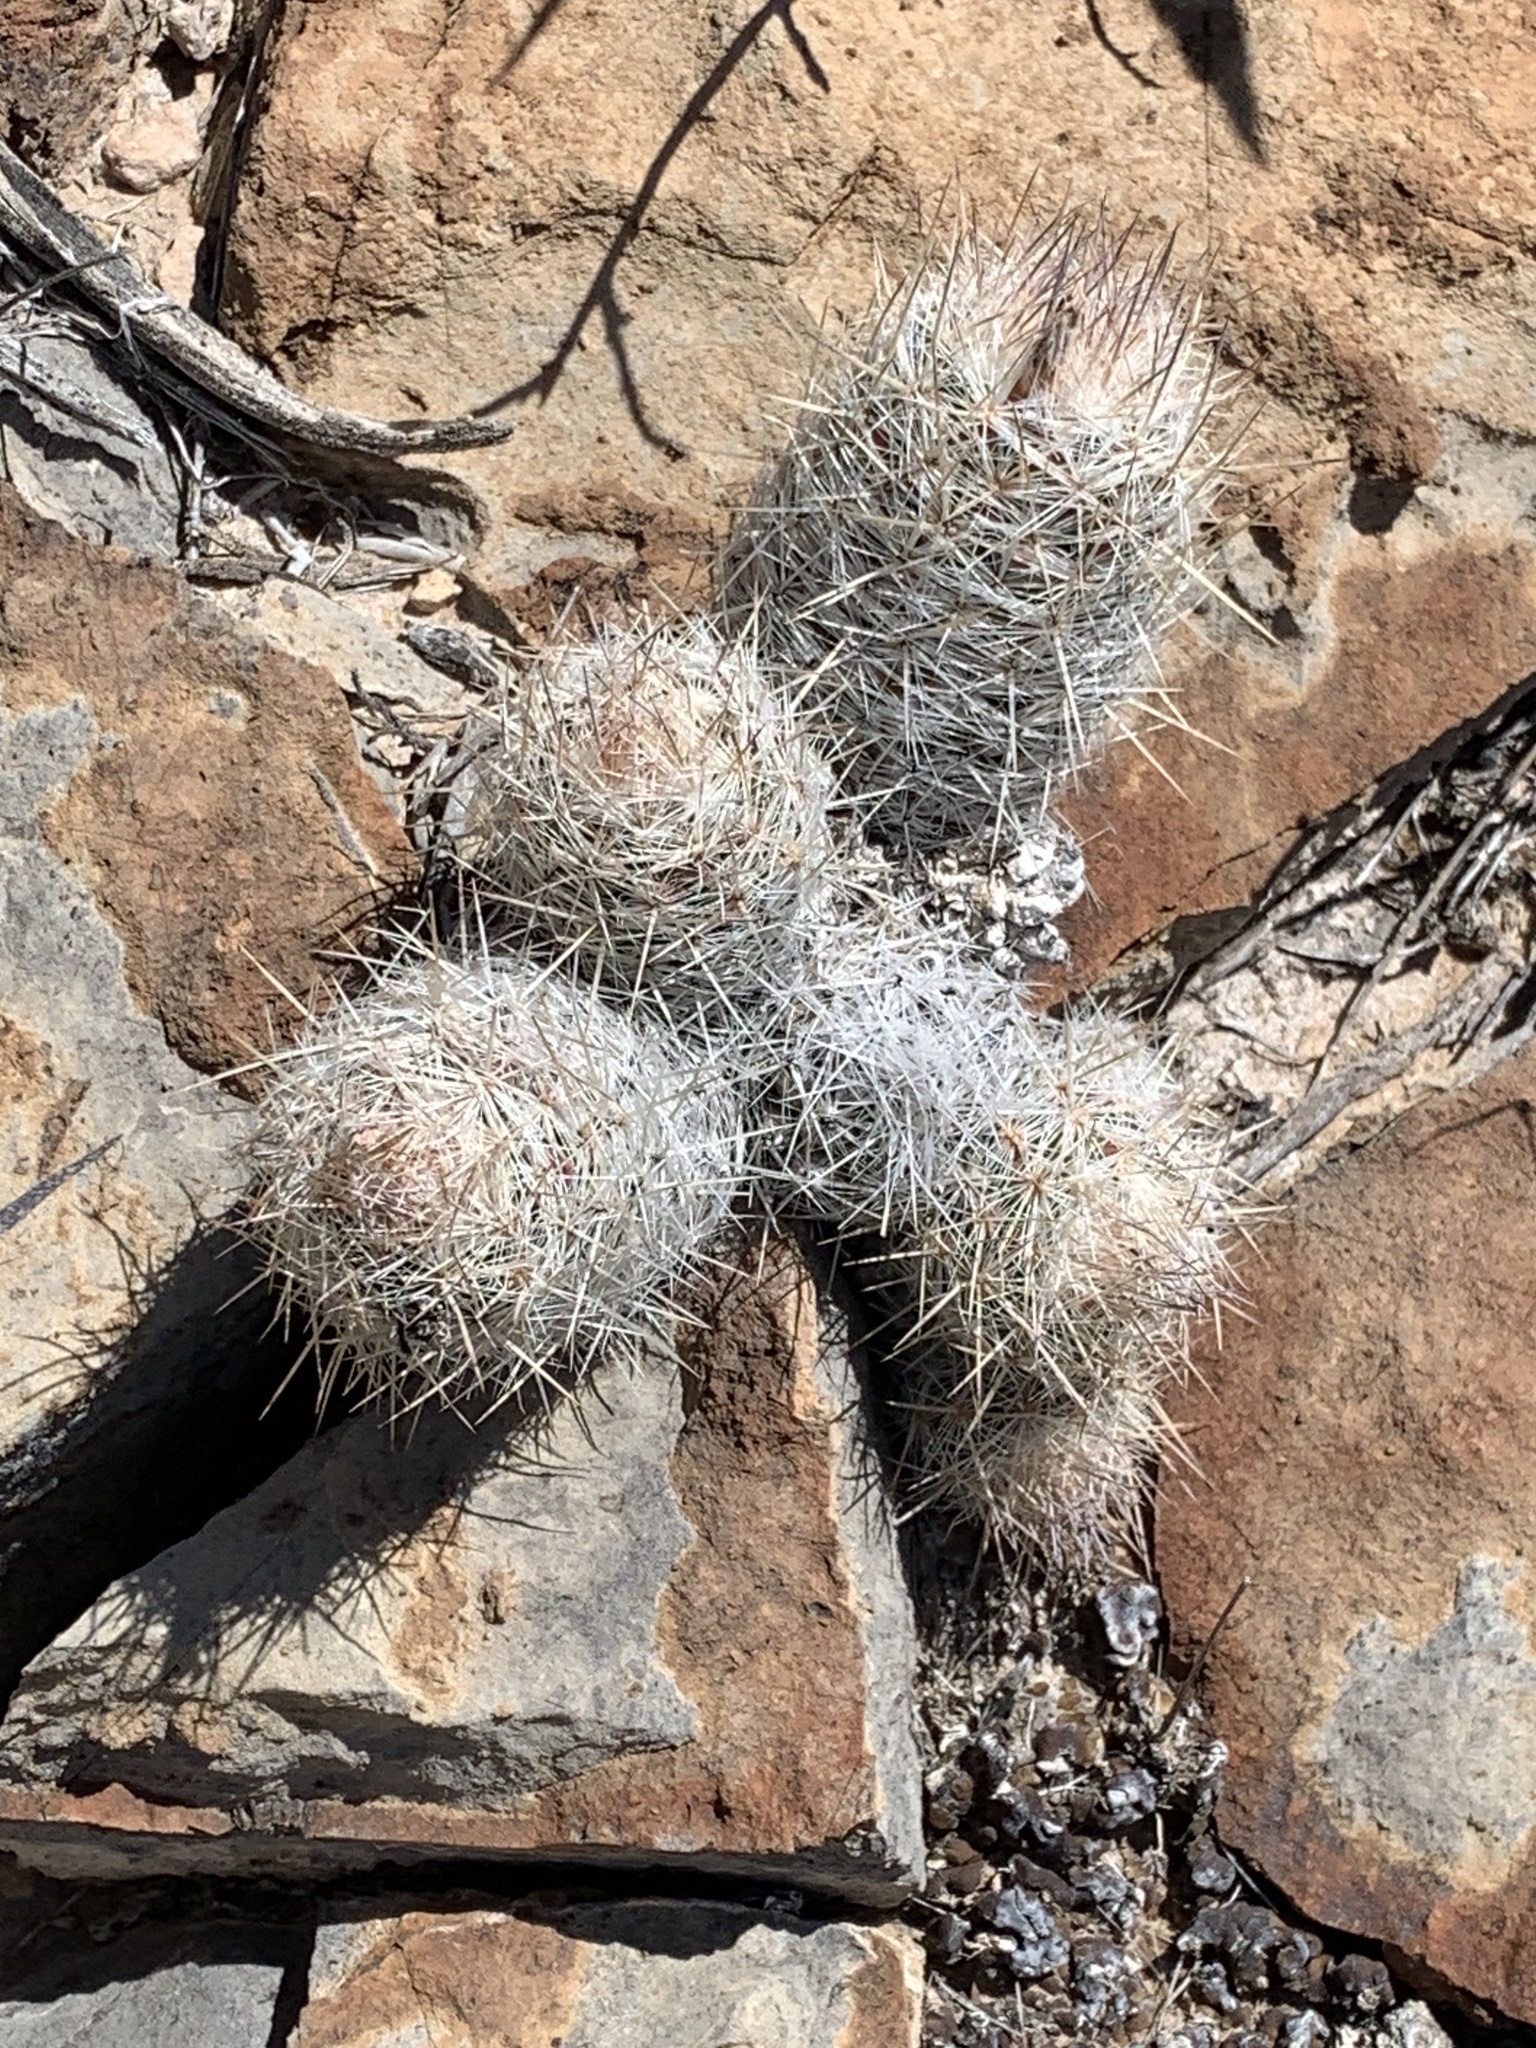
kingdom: Plantae
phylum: Tracheophyta
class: Magnoliopsida
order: Caryophyllales
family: Cactaceae
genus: Pelecyphora
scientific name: Pelecyphora tuberculosa
